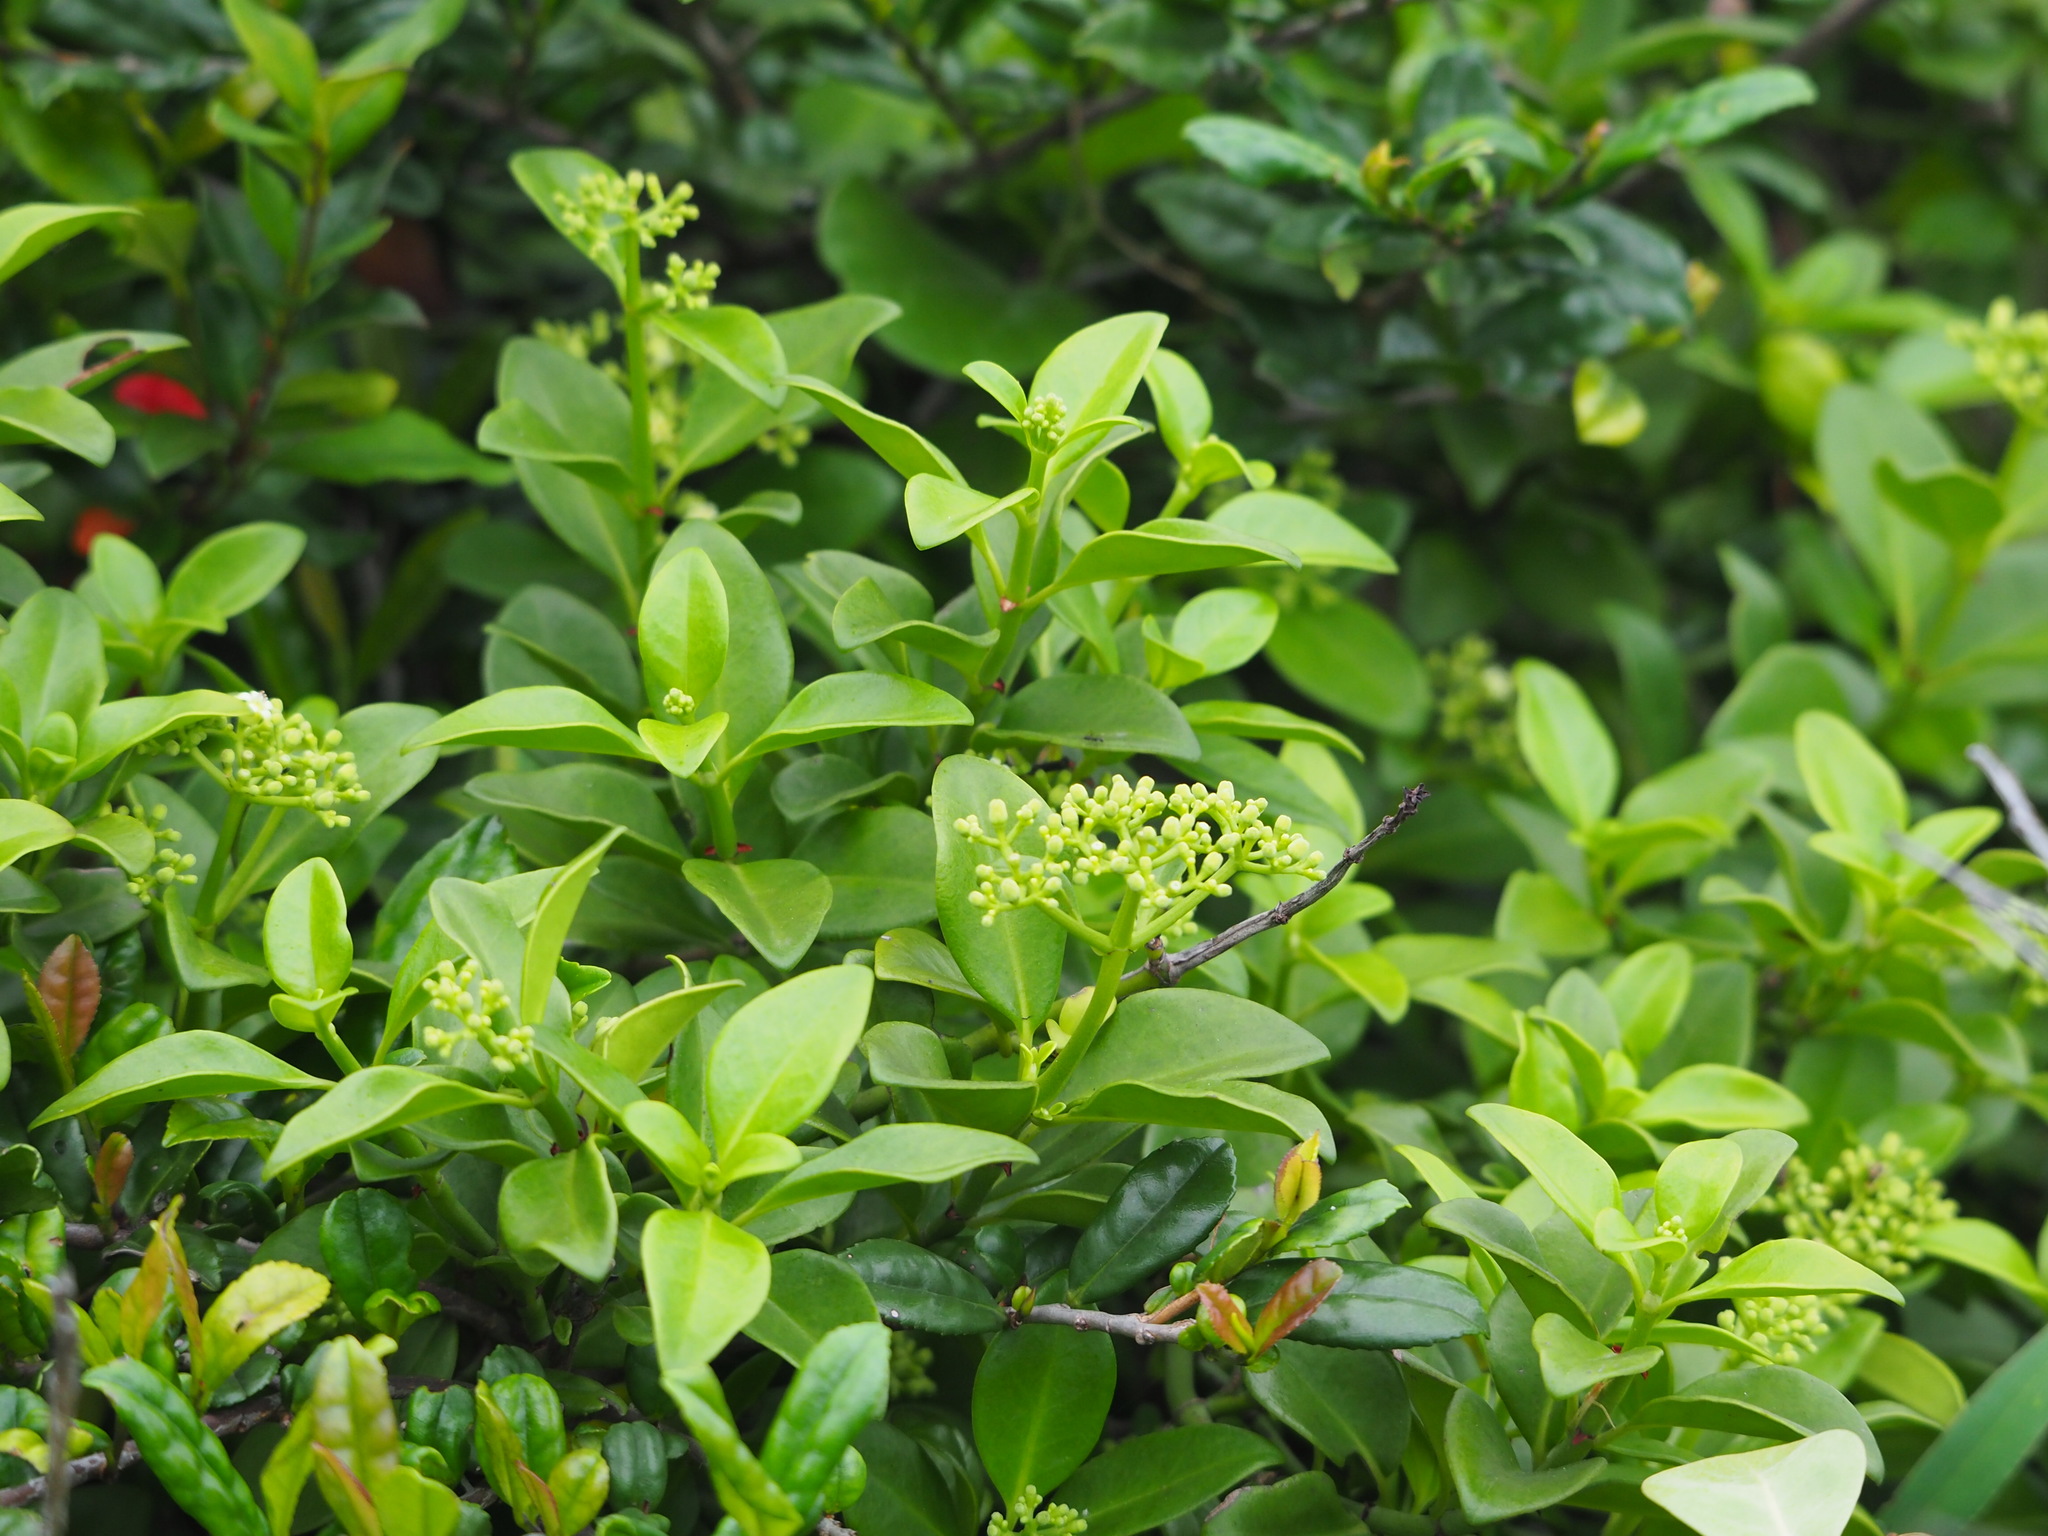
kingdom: Plantae
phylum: Tracheophyta
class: Magnoliopsida
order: Gentianales
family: Rubiaceae
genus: Psychotria
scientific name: Psychotria serpens
